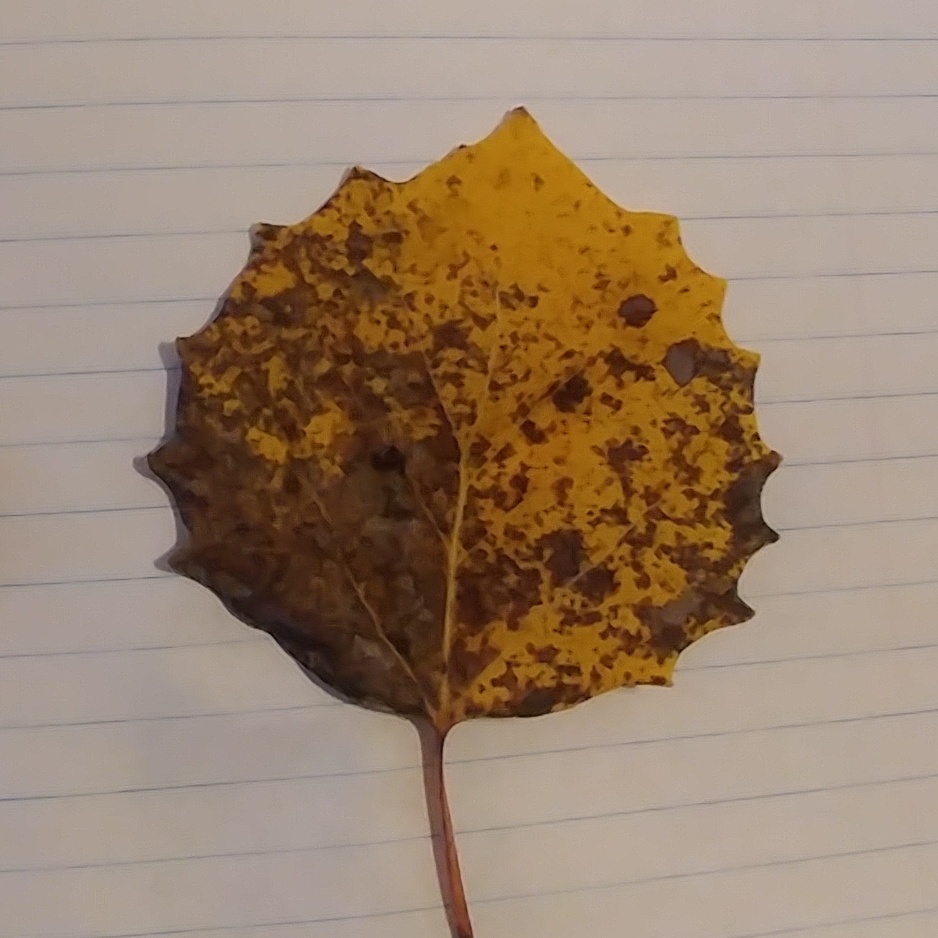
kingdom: Plantae
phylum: Tracheophyta
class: Magnoliopsida
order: Malpighiales
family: Salicaceae
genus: Populus
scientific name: Populus grandidentata
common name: Bigtooth aspen
